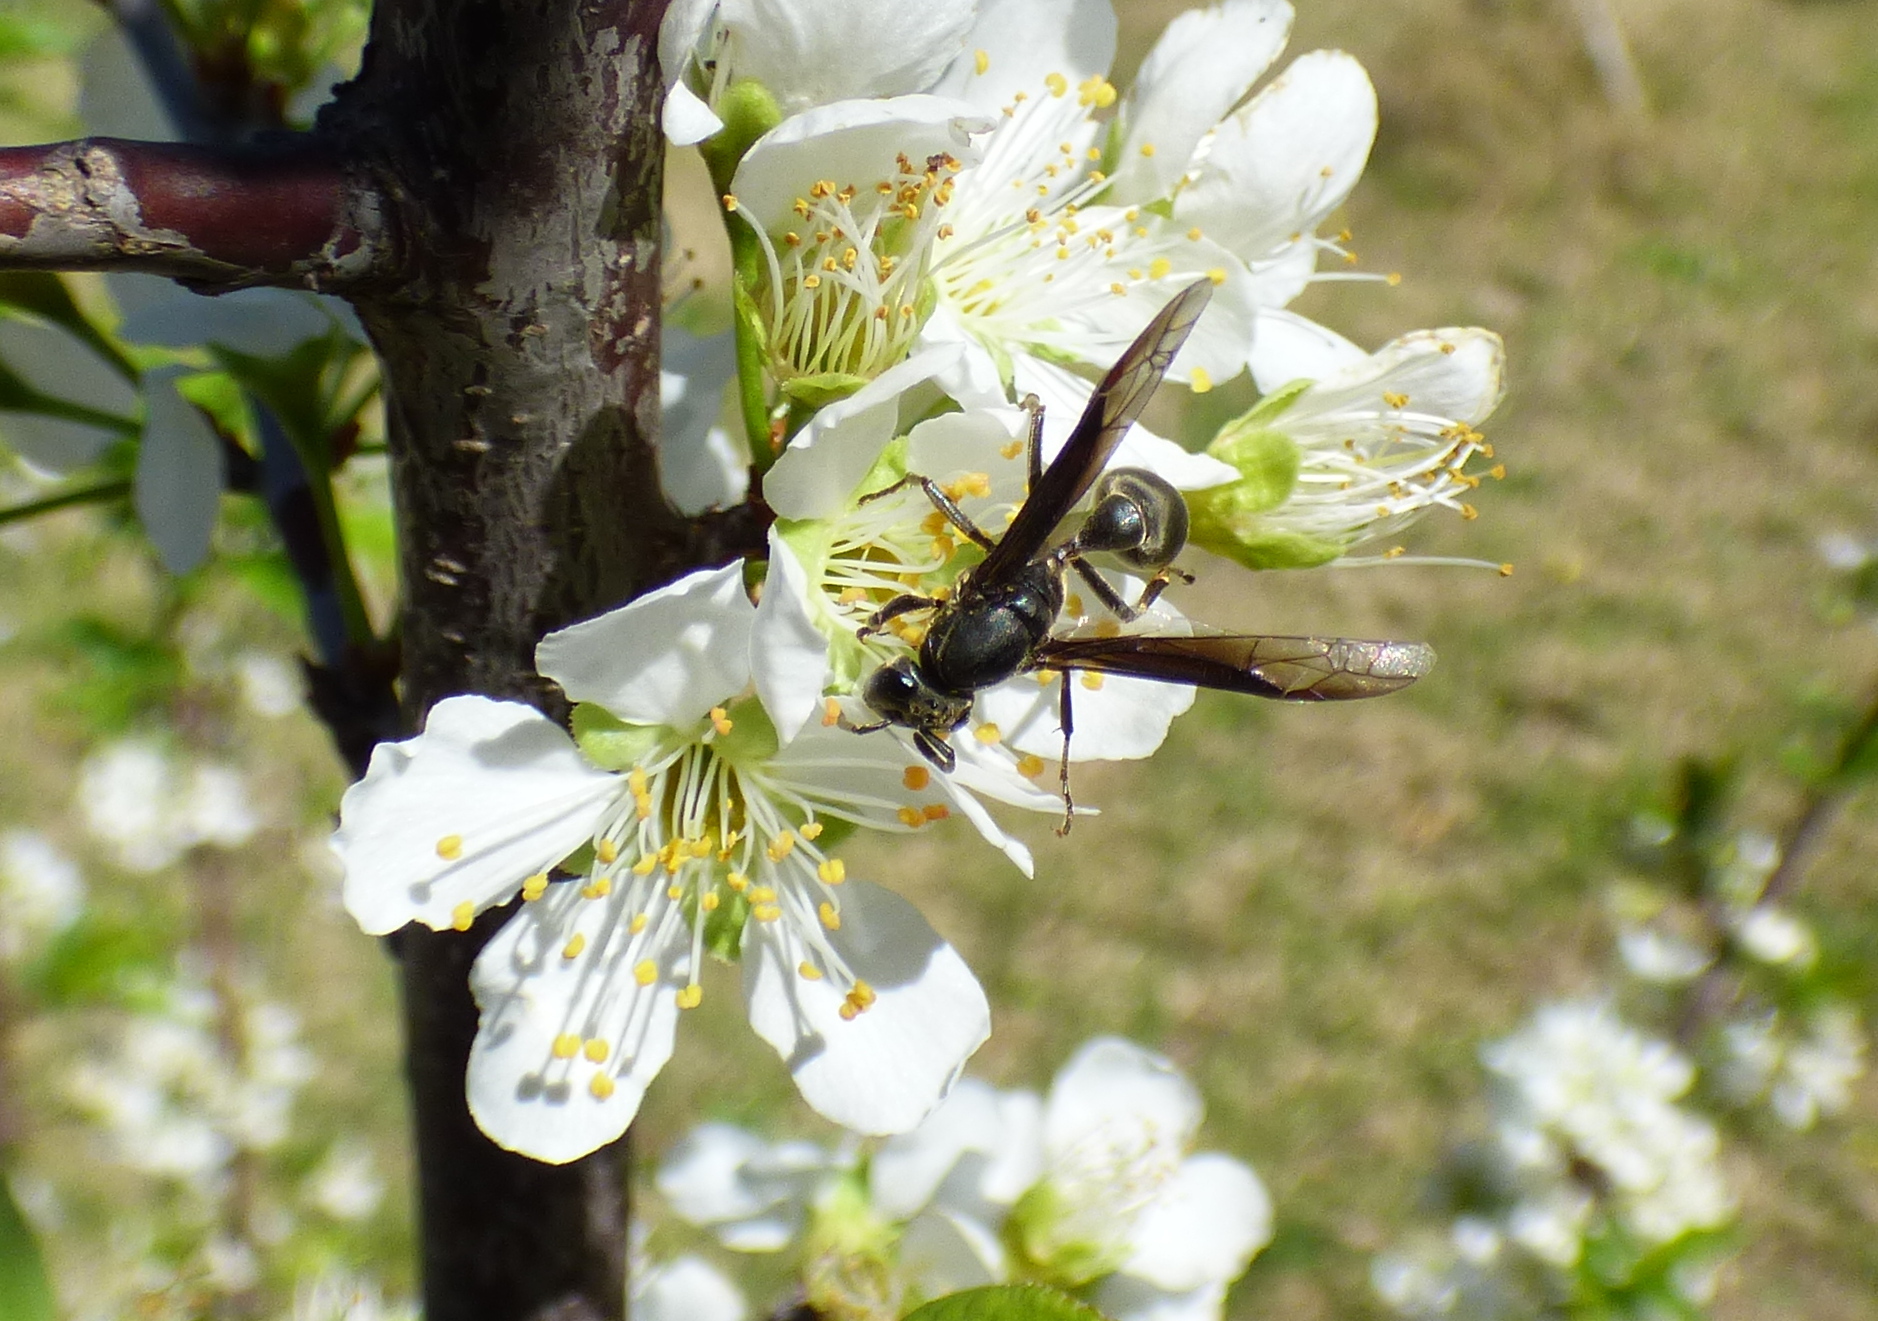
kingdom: Animalia
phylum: Arthropoda
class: Insecta
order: Hymenoptera
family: Eumenidae
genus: Polybia
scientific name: Polybia ignobilis
